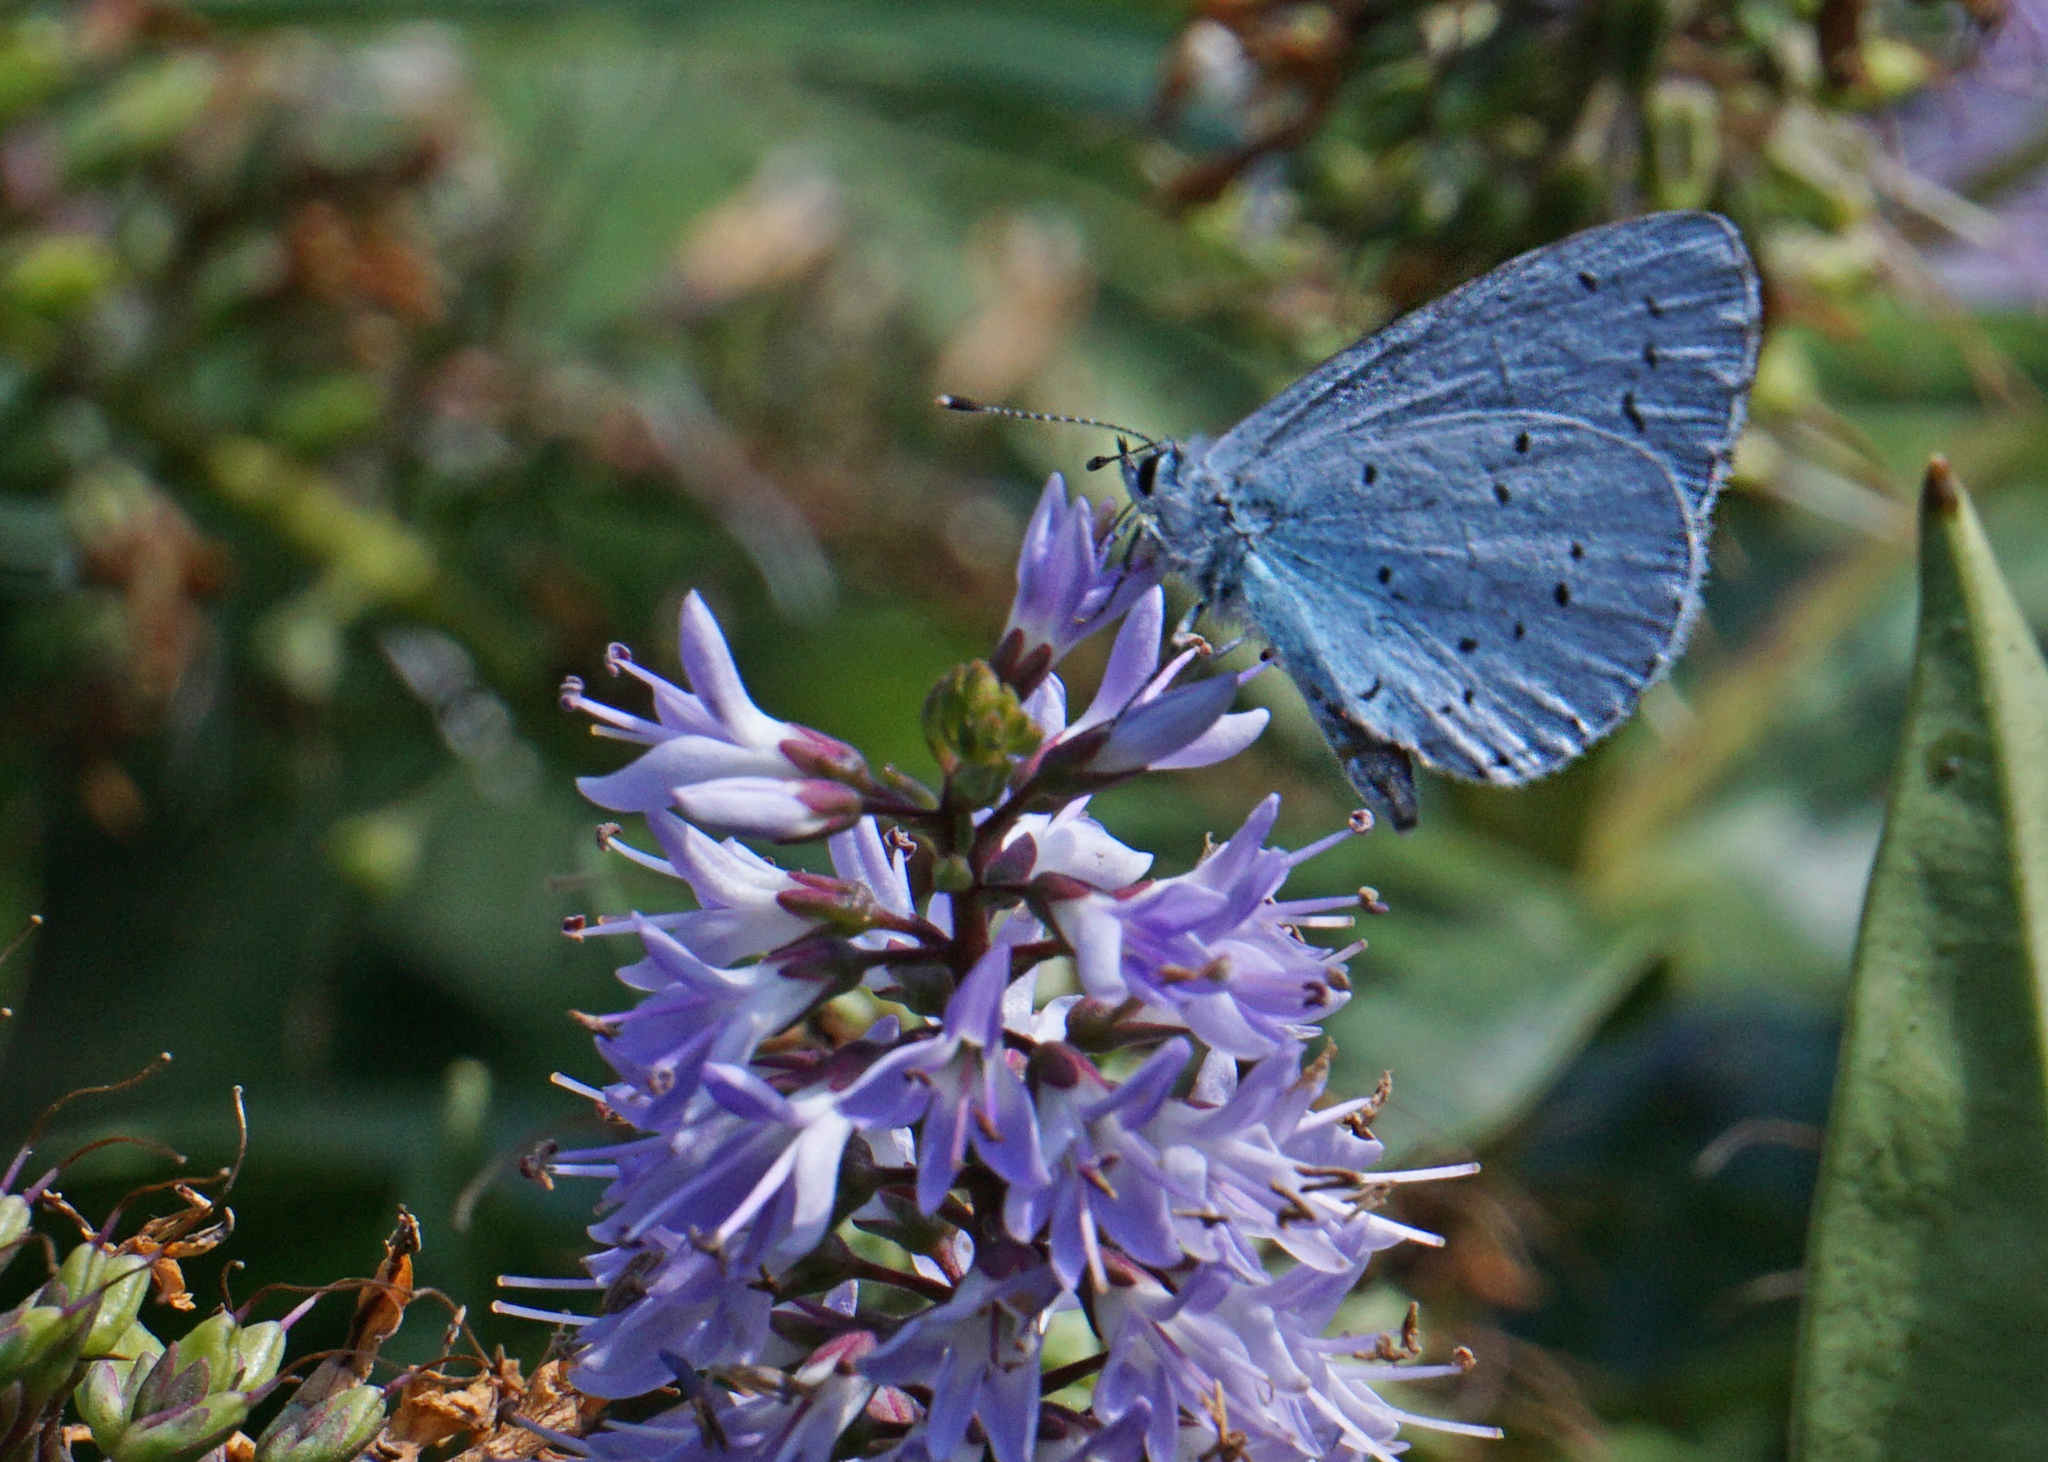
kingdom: Animalia
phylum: Arthropoda
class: Insecta
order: Lepidoptera
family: Lycaenidae
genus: Celastrina
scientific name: Celastrina argiolus
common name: Holly blue
